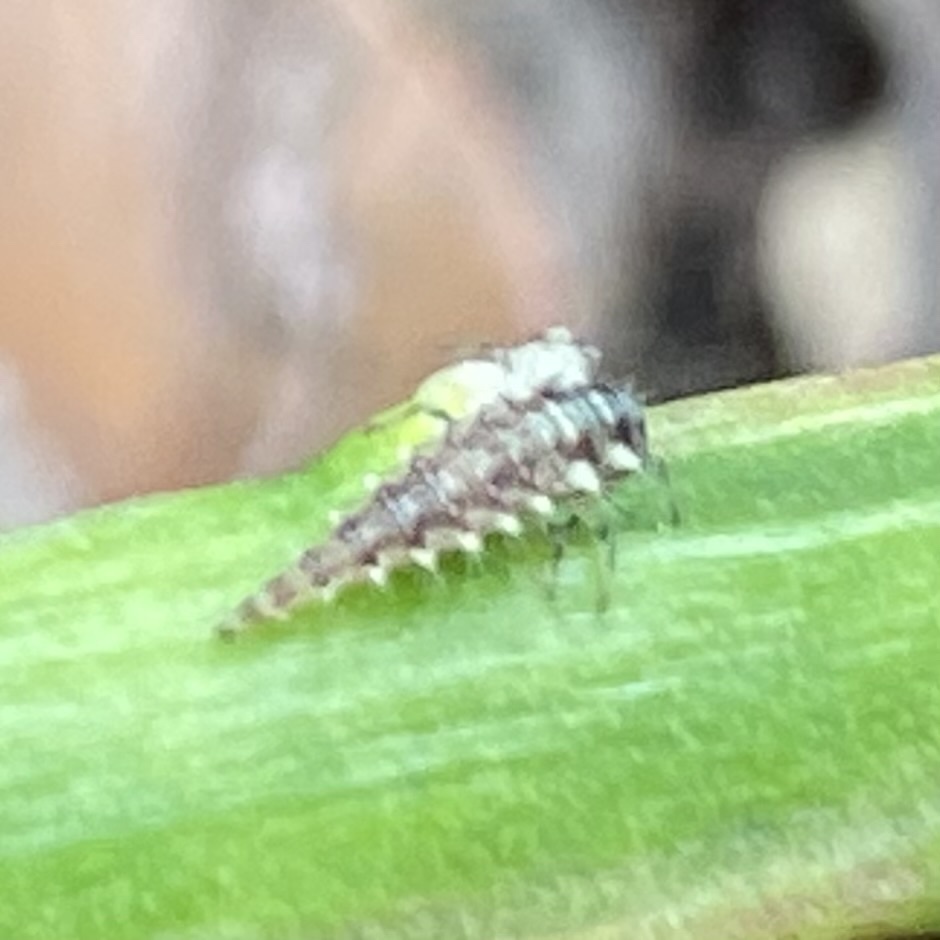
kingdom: Animalia
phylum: Arthropoda
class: Insecta
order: Neuroptera
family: Chrysopidae
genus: Chrysoperla
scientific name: Chrysoperla rufilabris
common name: Red-lipped green lacewing
